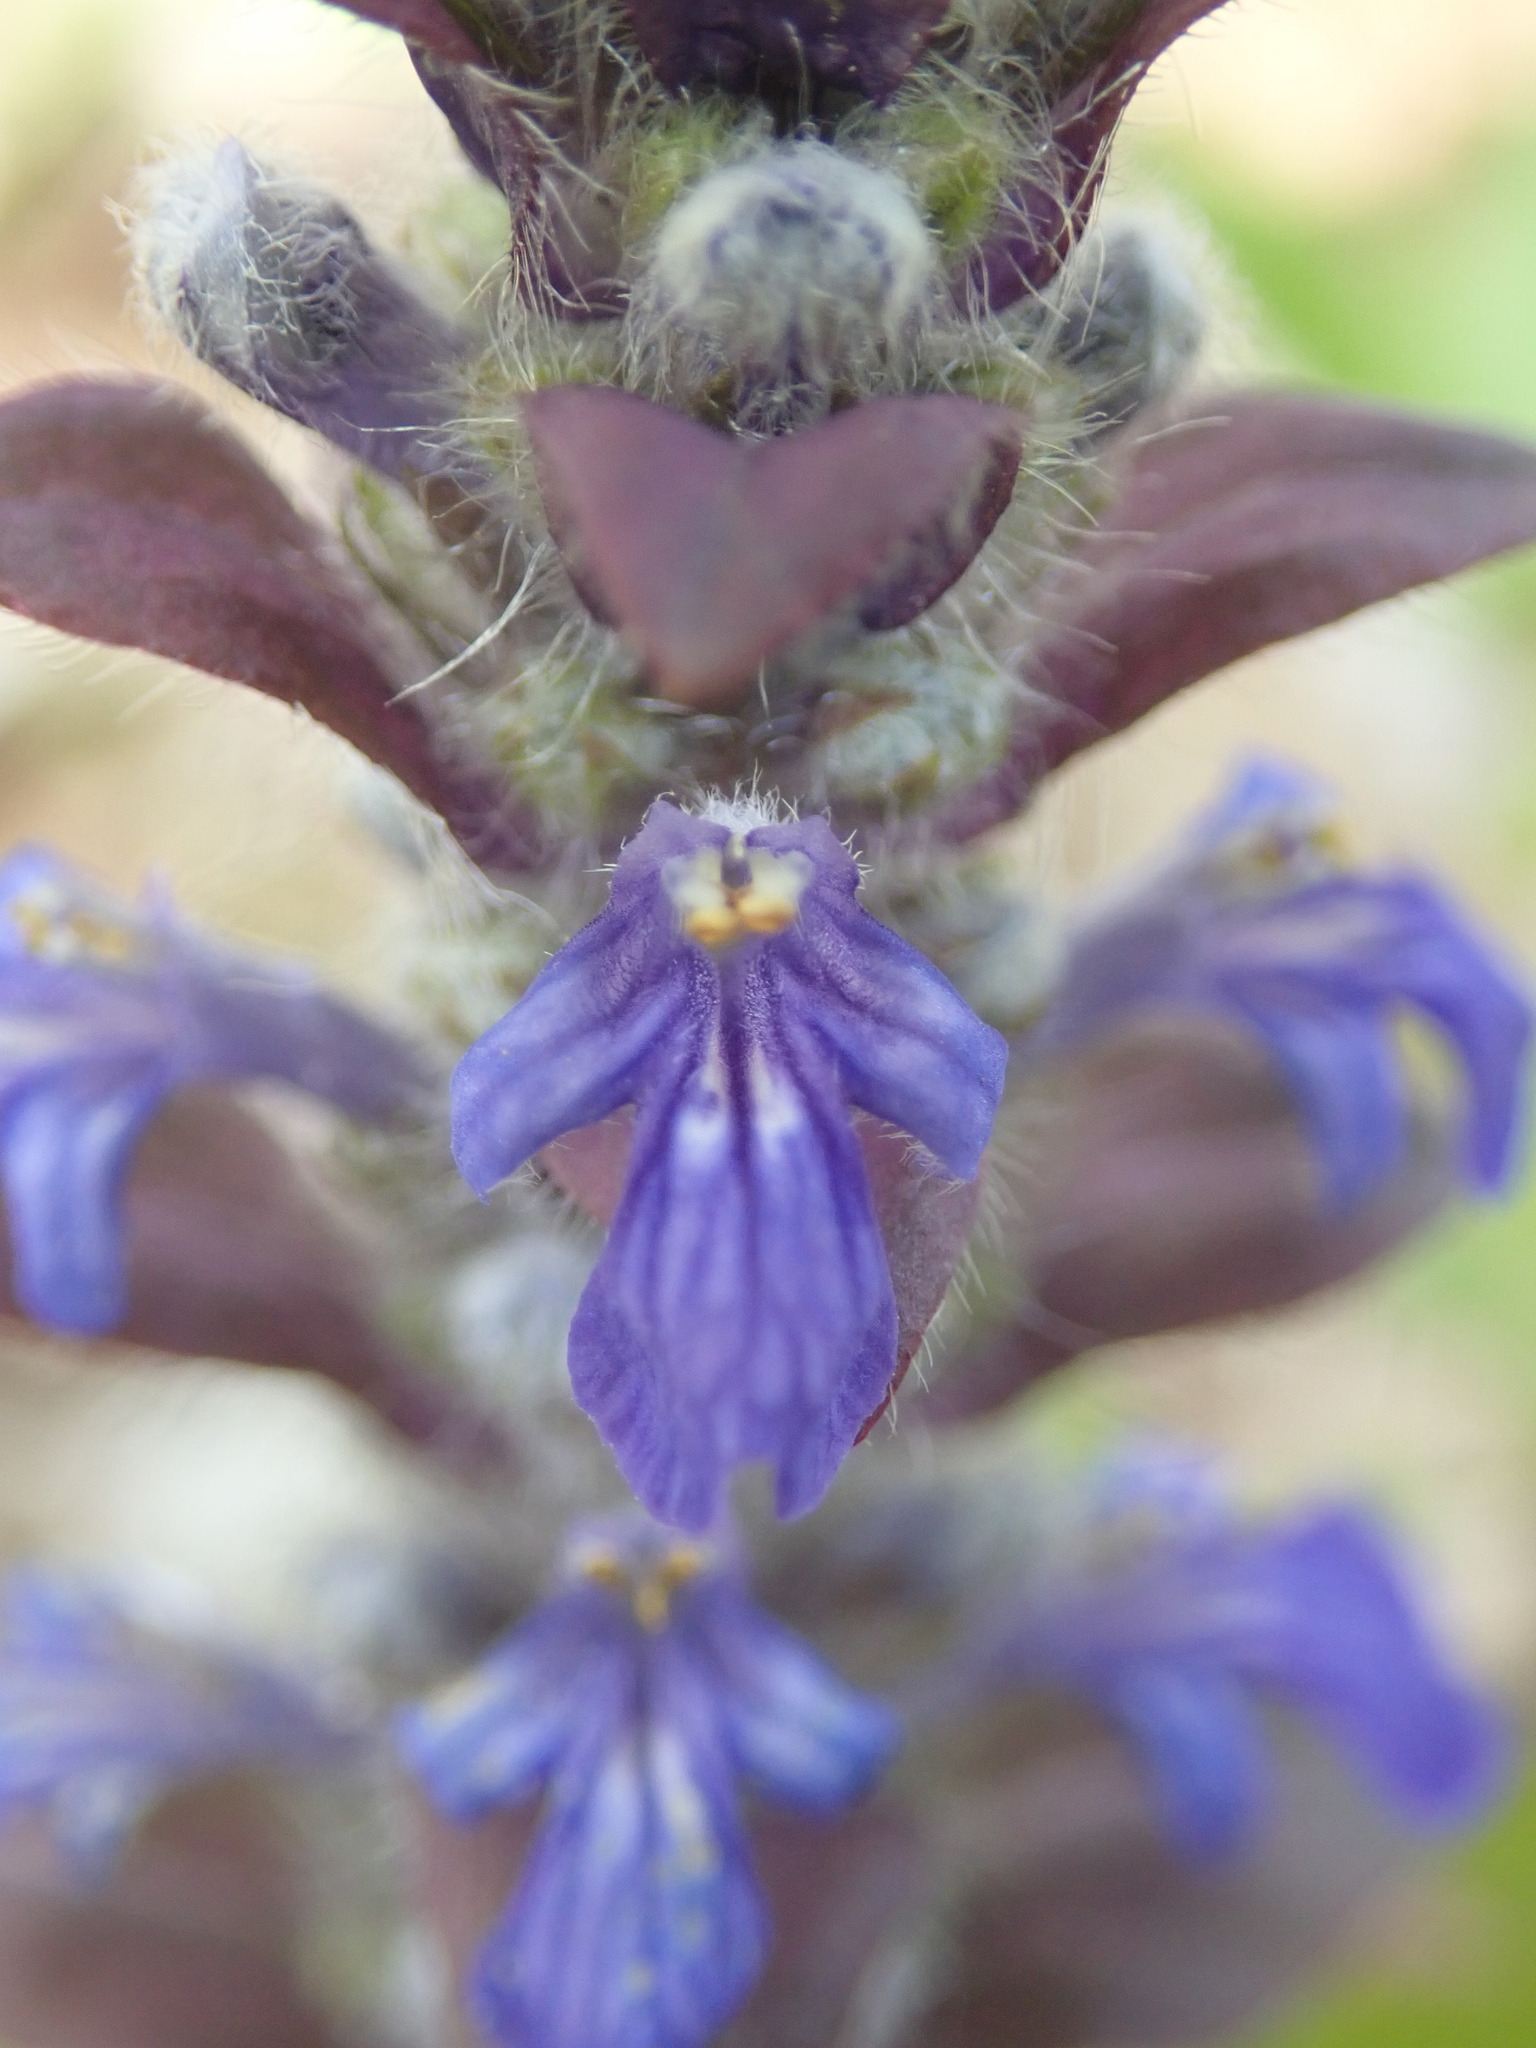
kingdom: Plantae
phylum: Tracheophyta
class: Magnoliopsida
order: Lamiales
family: Lamiaceae
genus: Ajuga
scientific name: Ajuga reptans
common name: Bugle
